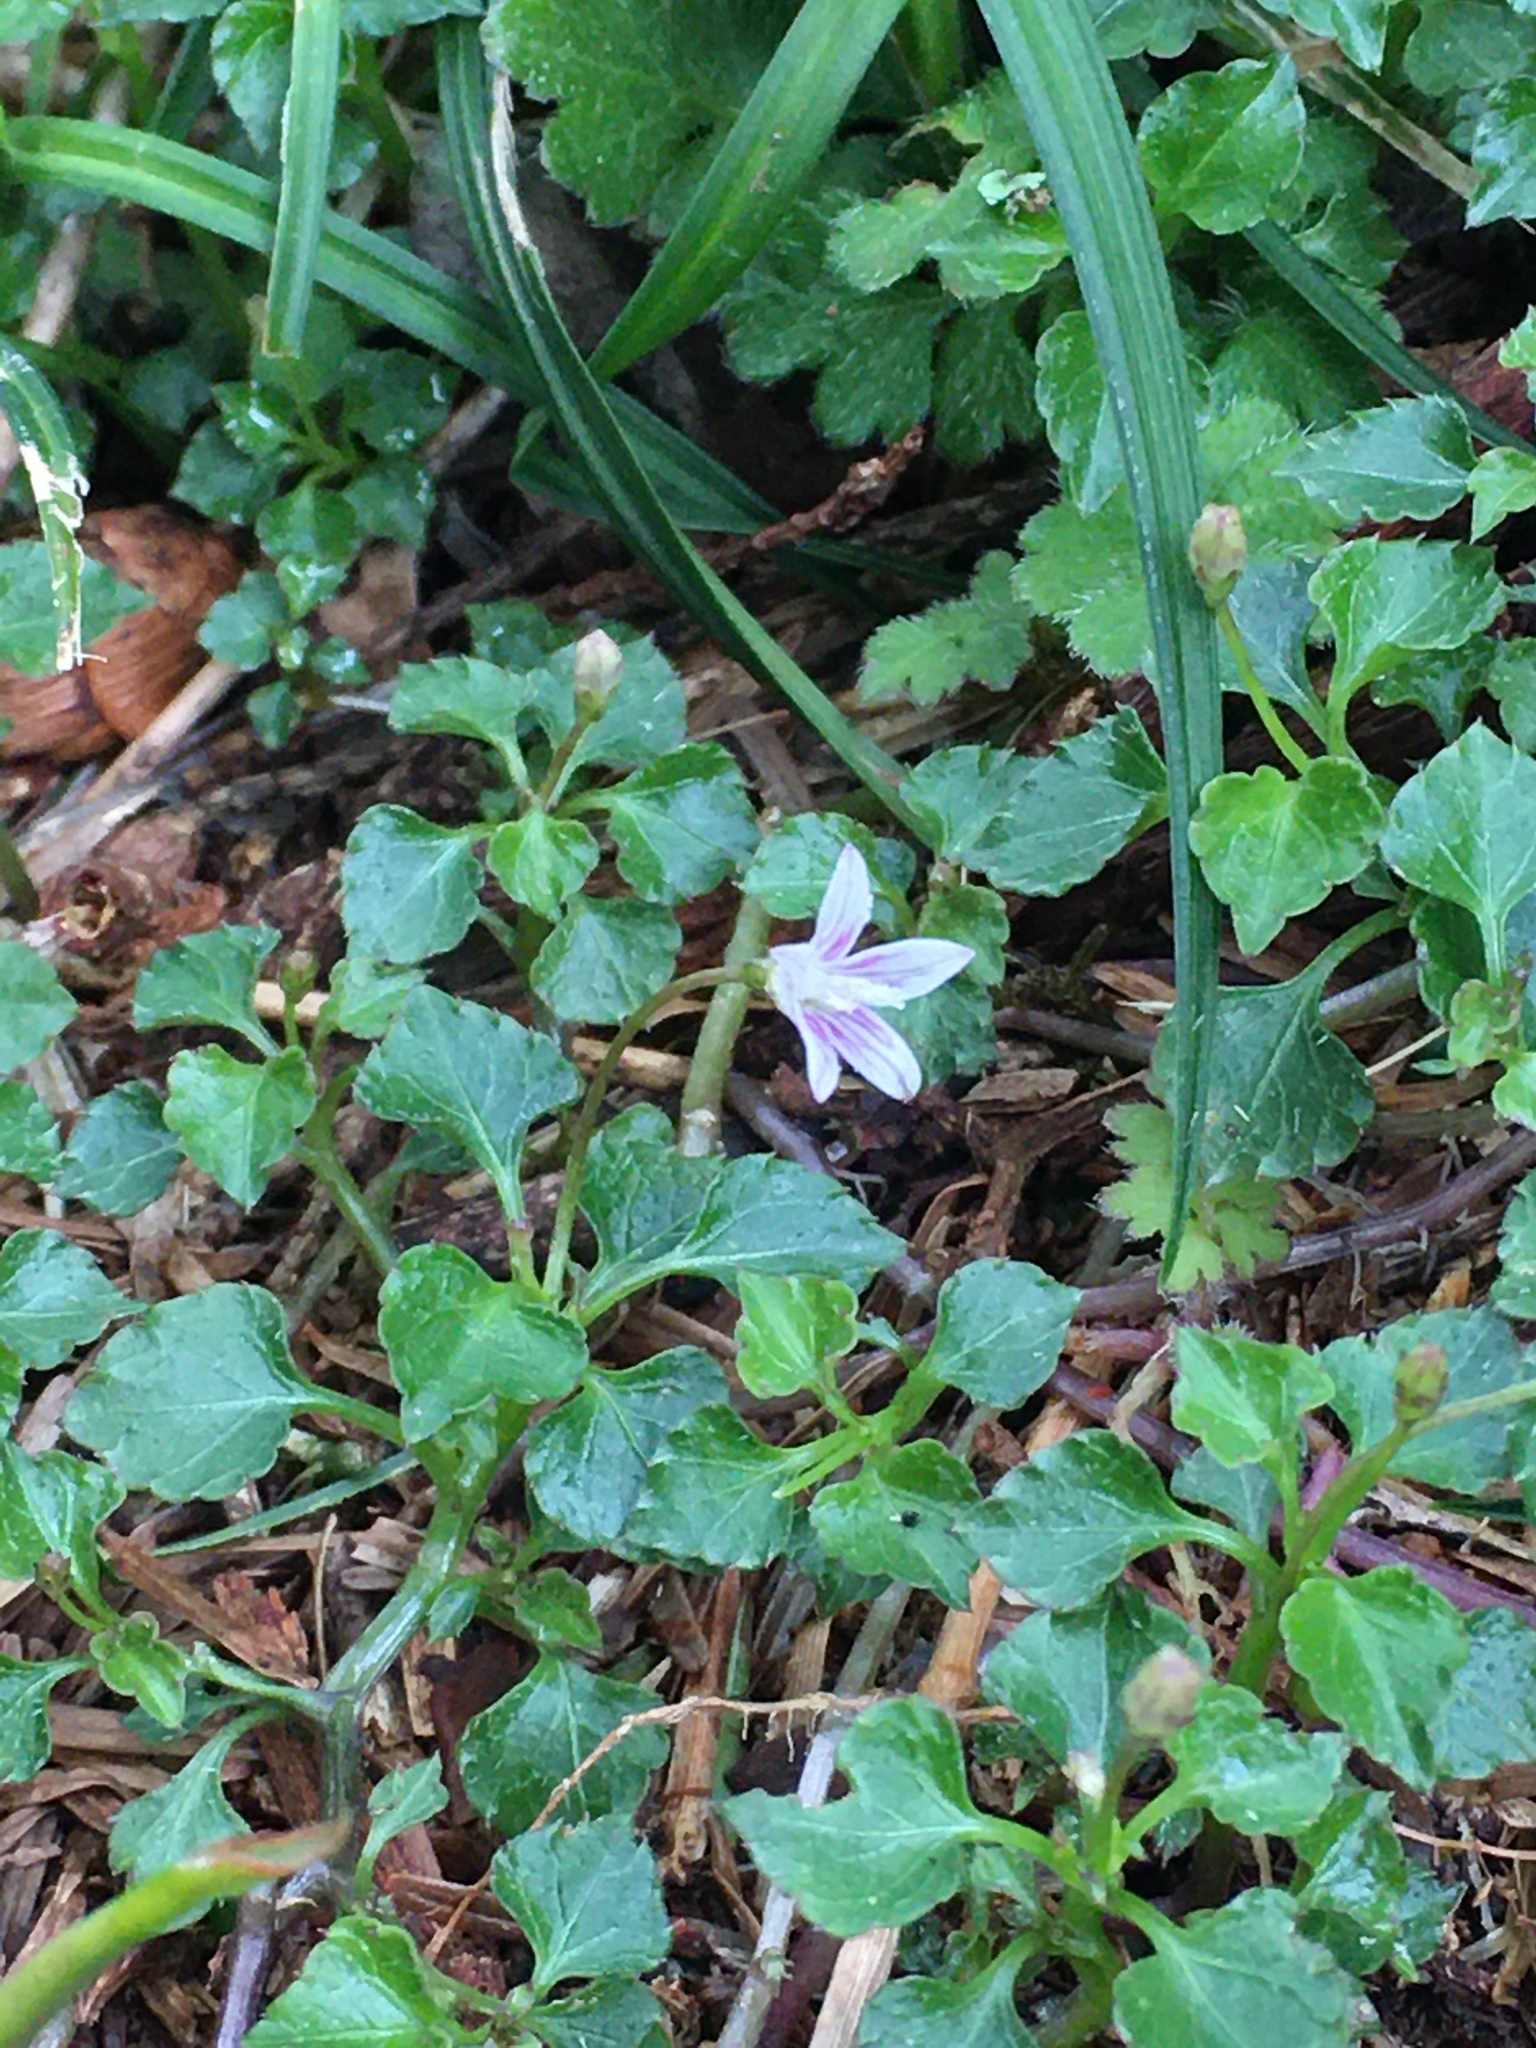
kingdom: Plantae
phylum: Tracheophyta
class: Magnoliopsida
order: Asterales
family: Campanulaceae
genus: Peracarpa
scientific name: Peracarpa carnosa
